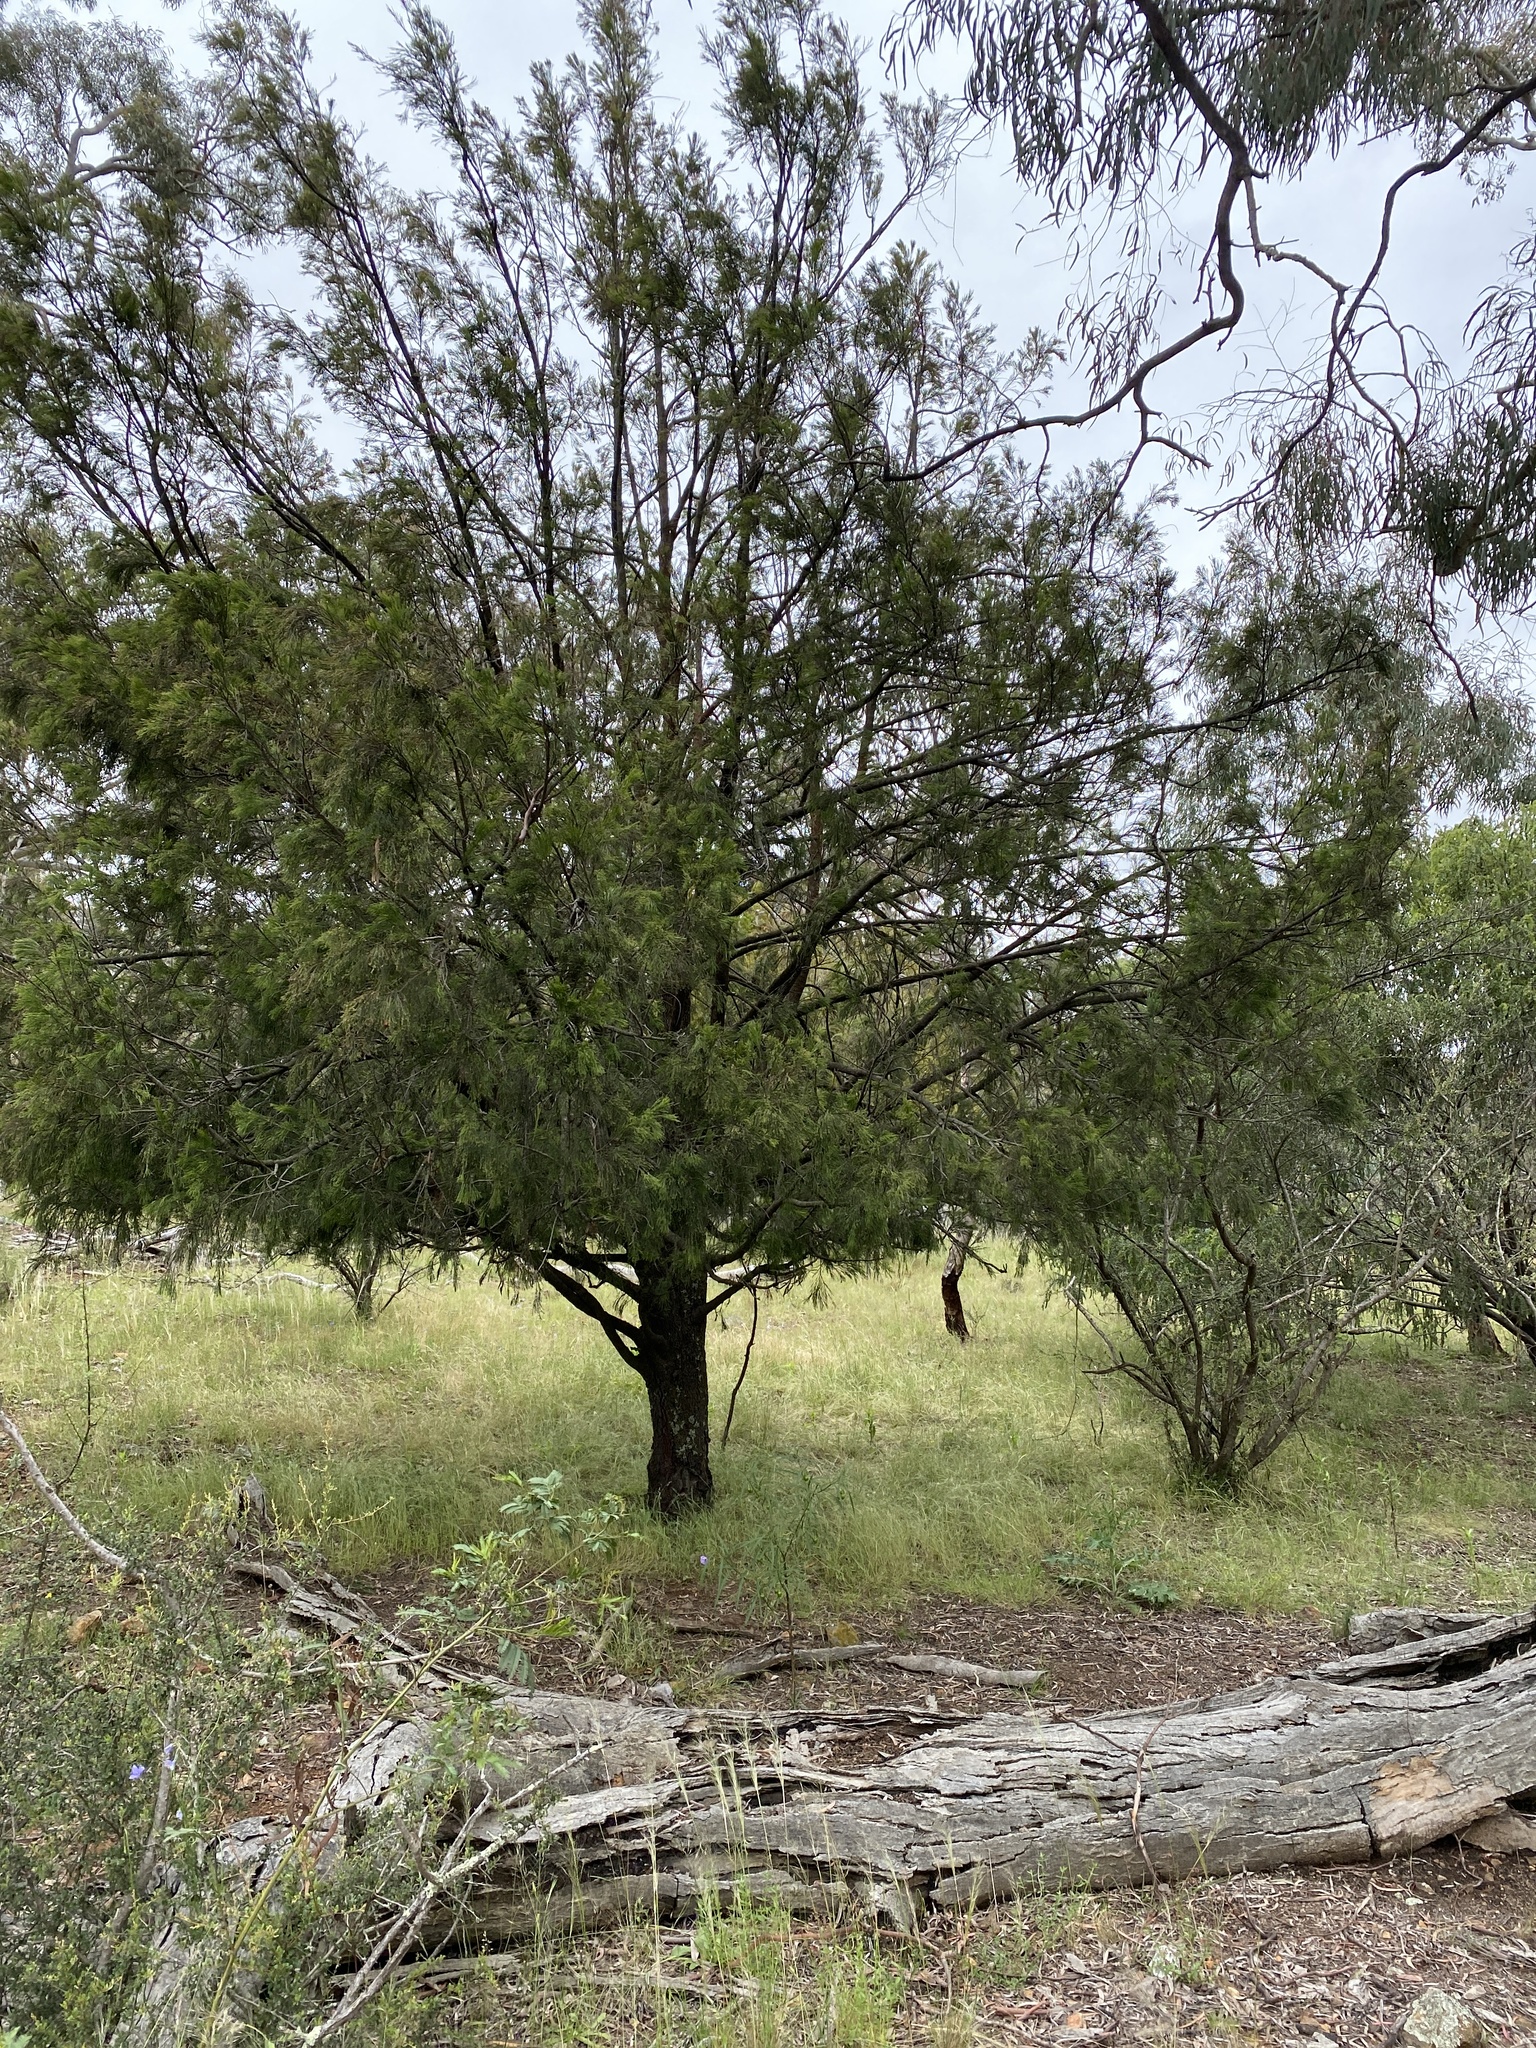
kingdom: Plantae
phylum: Tracheophyta
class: Magnoliopsida
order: Santalales
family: Santalaceae
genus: Exocarpos
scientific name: Exocarpos cupressiformis
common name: Cherry ballart
